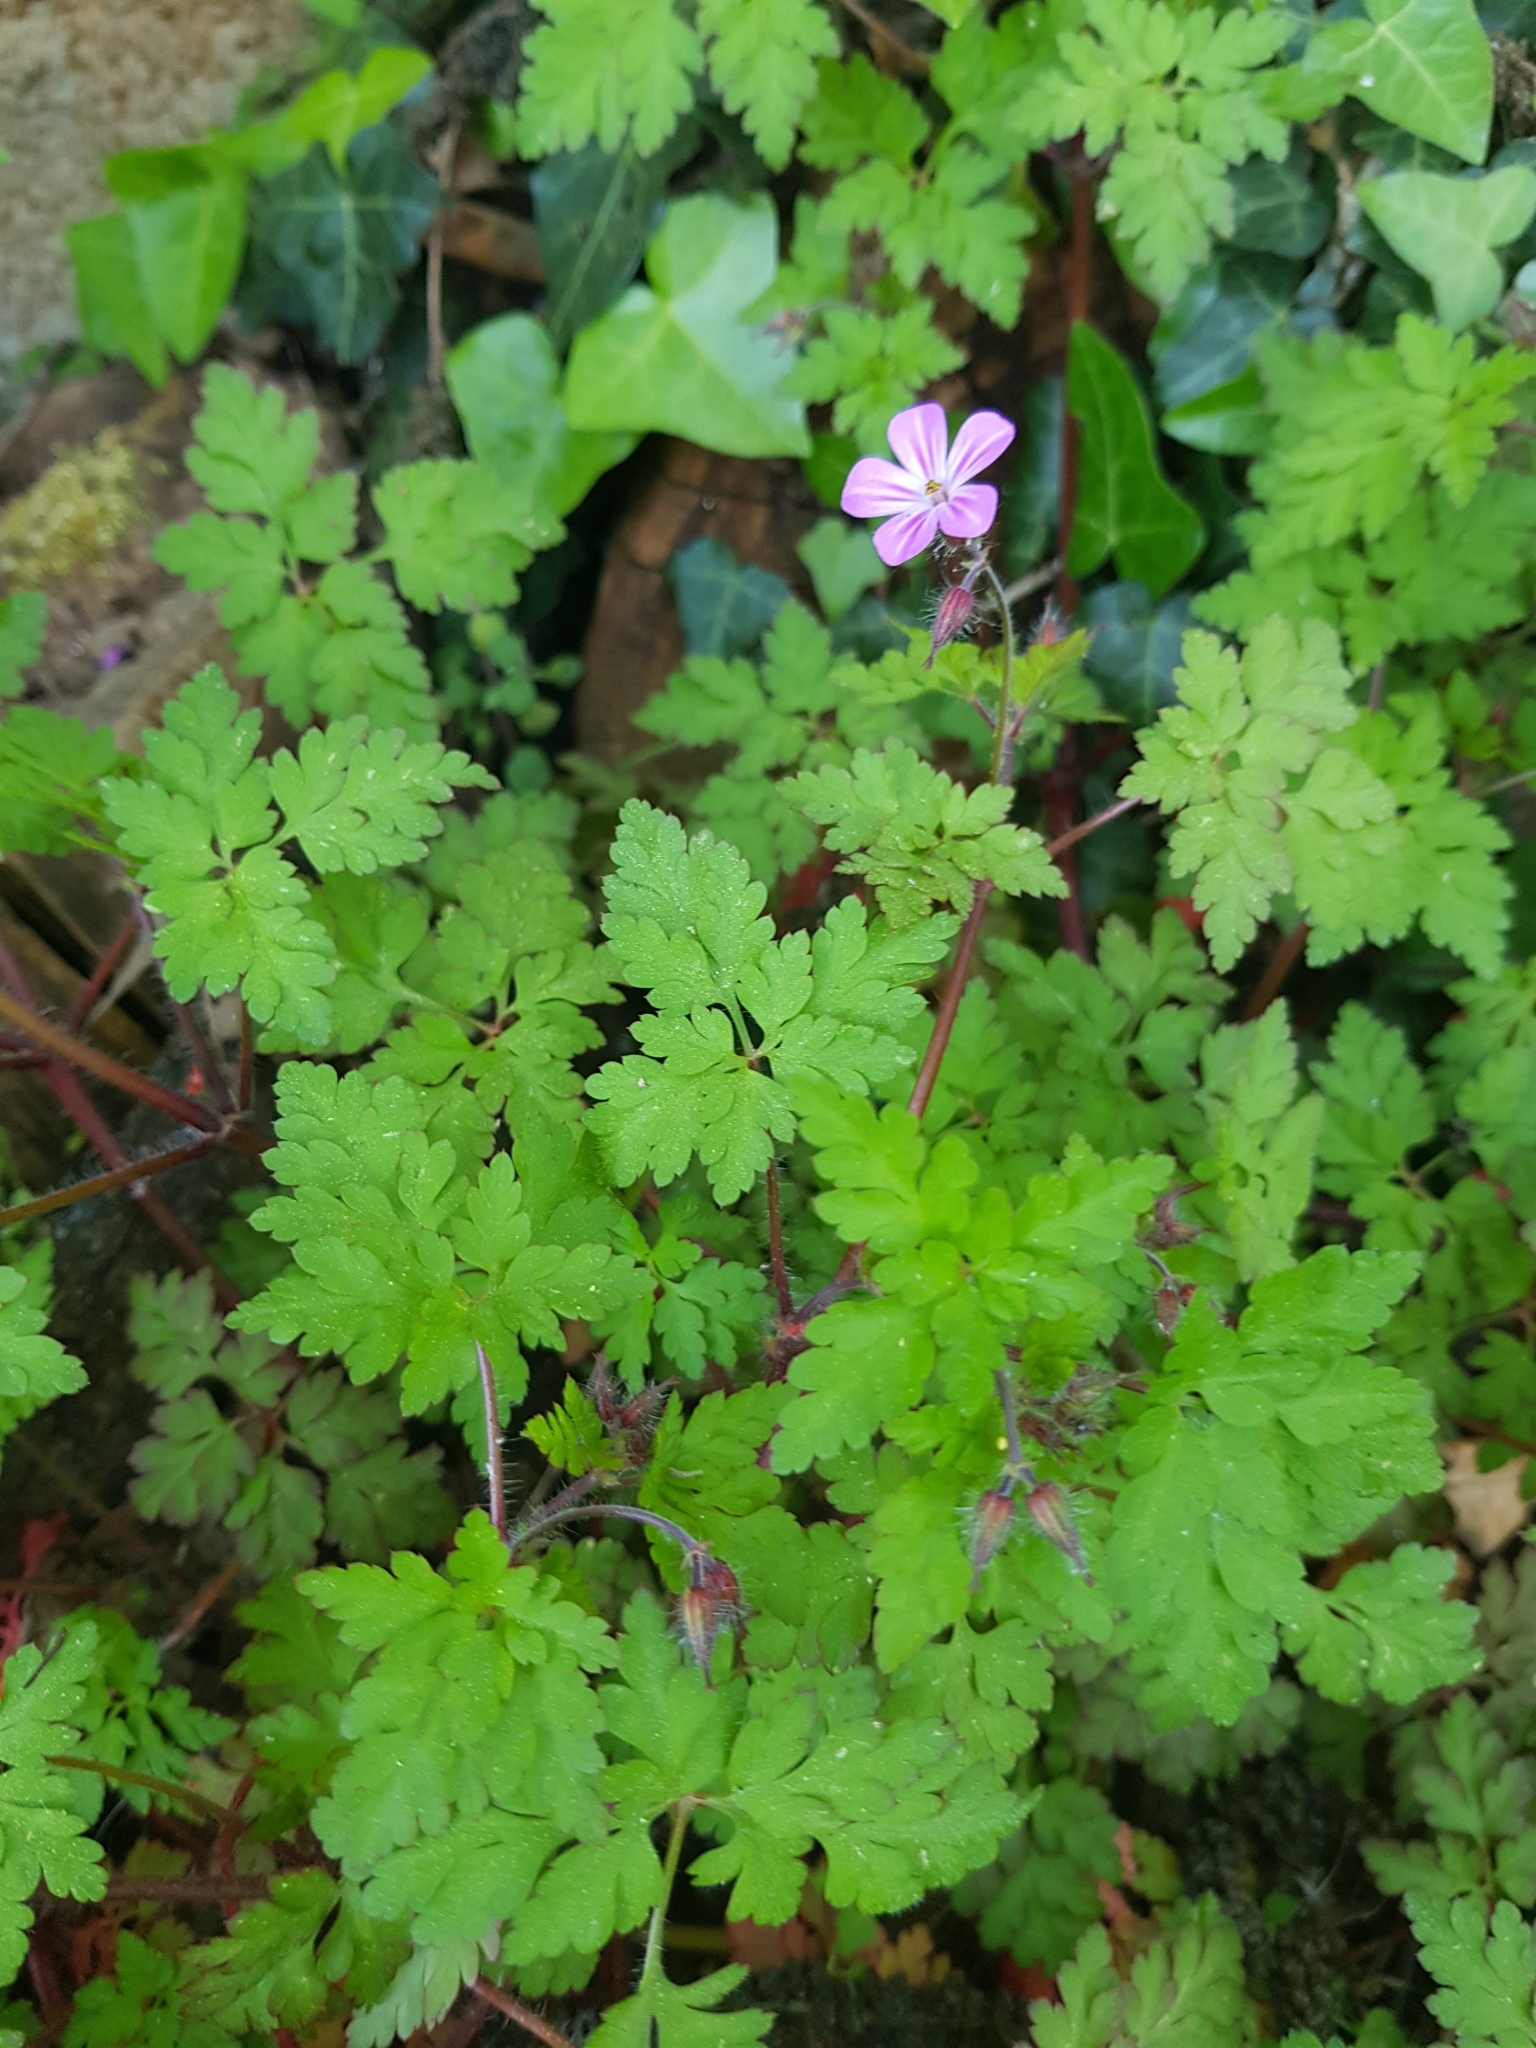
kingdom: Plantae
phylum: Tracheophyta
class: Magnoliopsida
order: Geraniales
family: Geraniaceae
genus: Geranium
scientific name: Geranium robertianum
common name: Herb-robert
